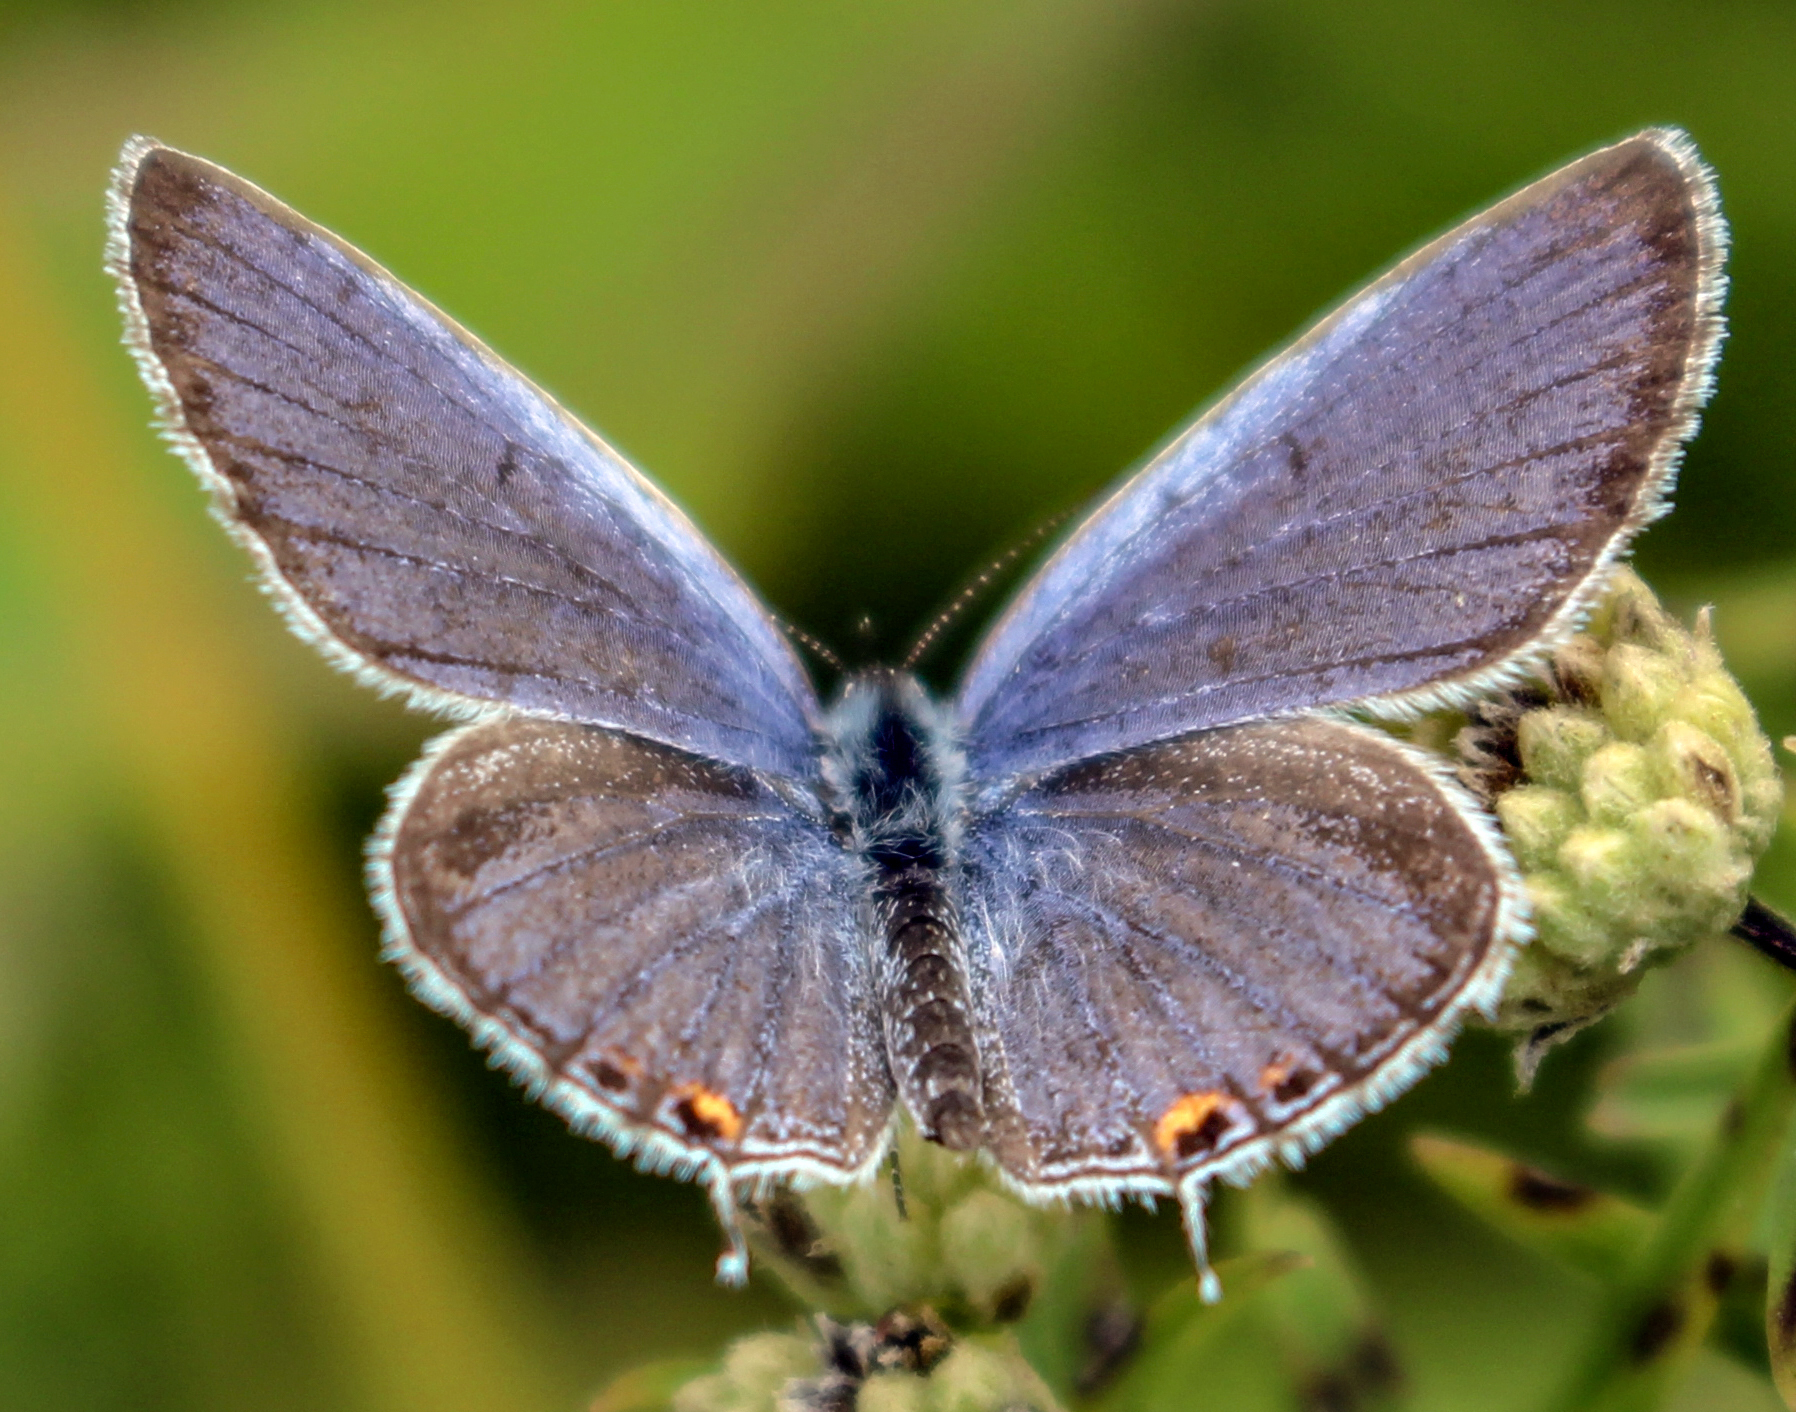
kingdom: Animalia
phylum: Arthropoda
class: Insecta
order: Lepidoptera
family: Lycaenidae
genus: Elkalyce
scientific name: Elkalyce comyntas
